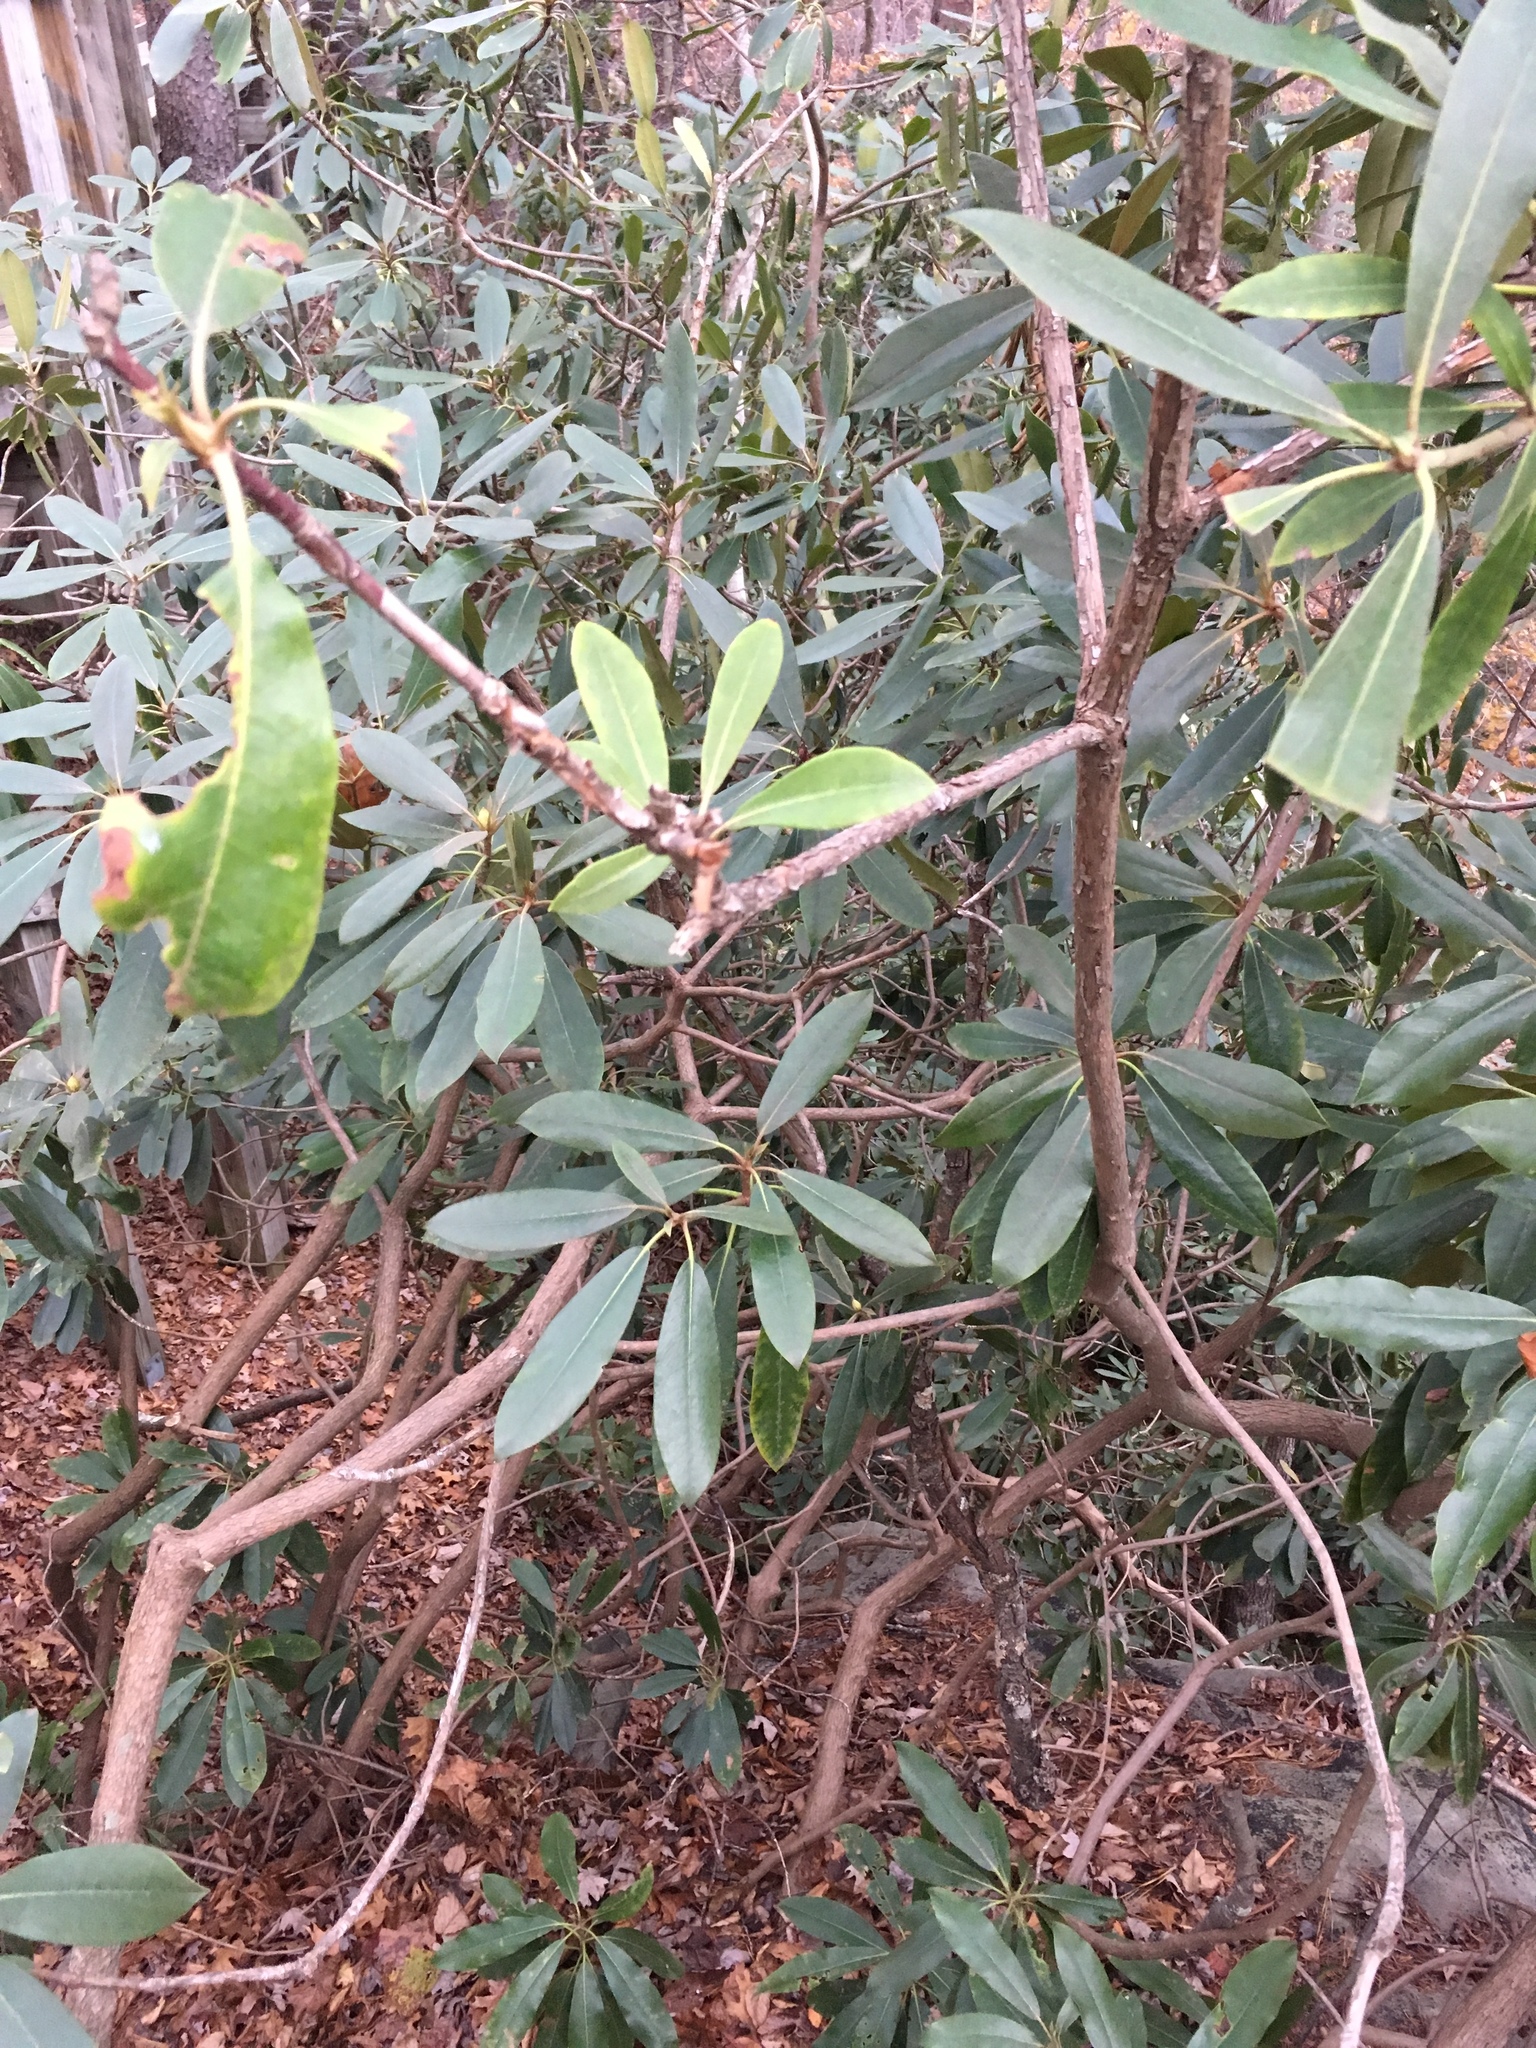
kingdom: Plantae
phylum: Tracheophyta
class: Magnoliopsida
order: Ericales
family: Ericaceae
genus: Rhododendron
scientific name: Rhododendron maximum
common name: Great rhododendron
